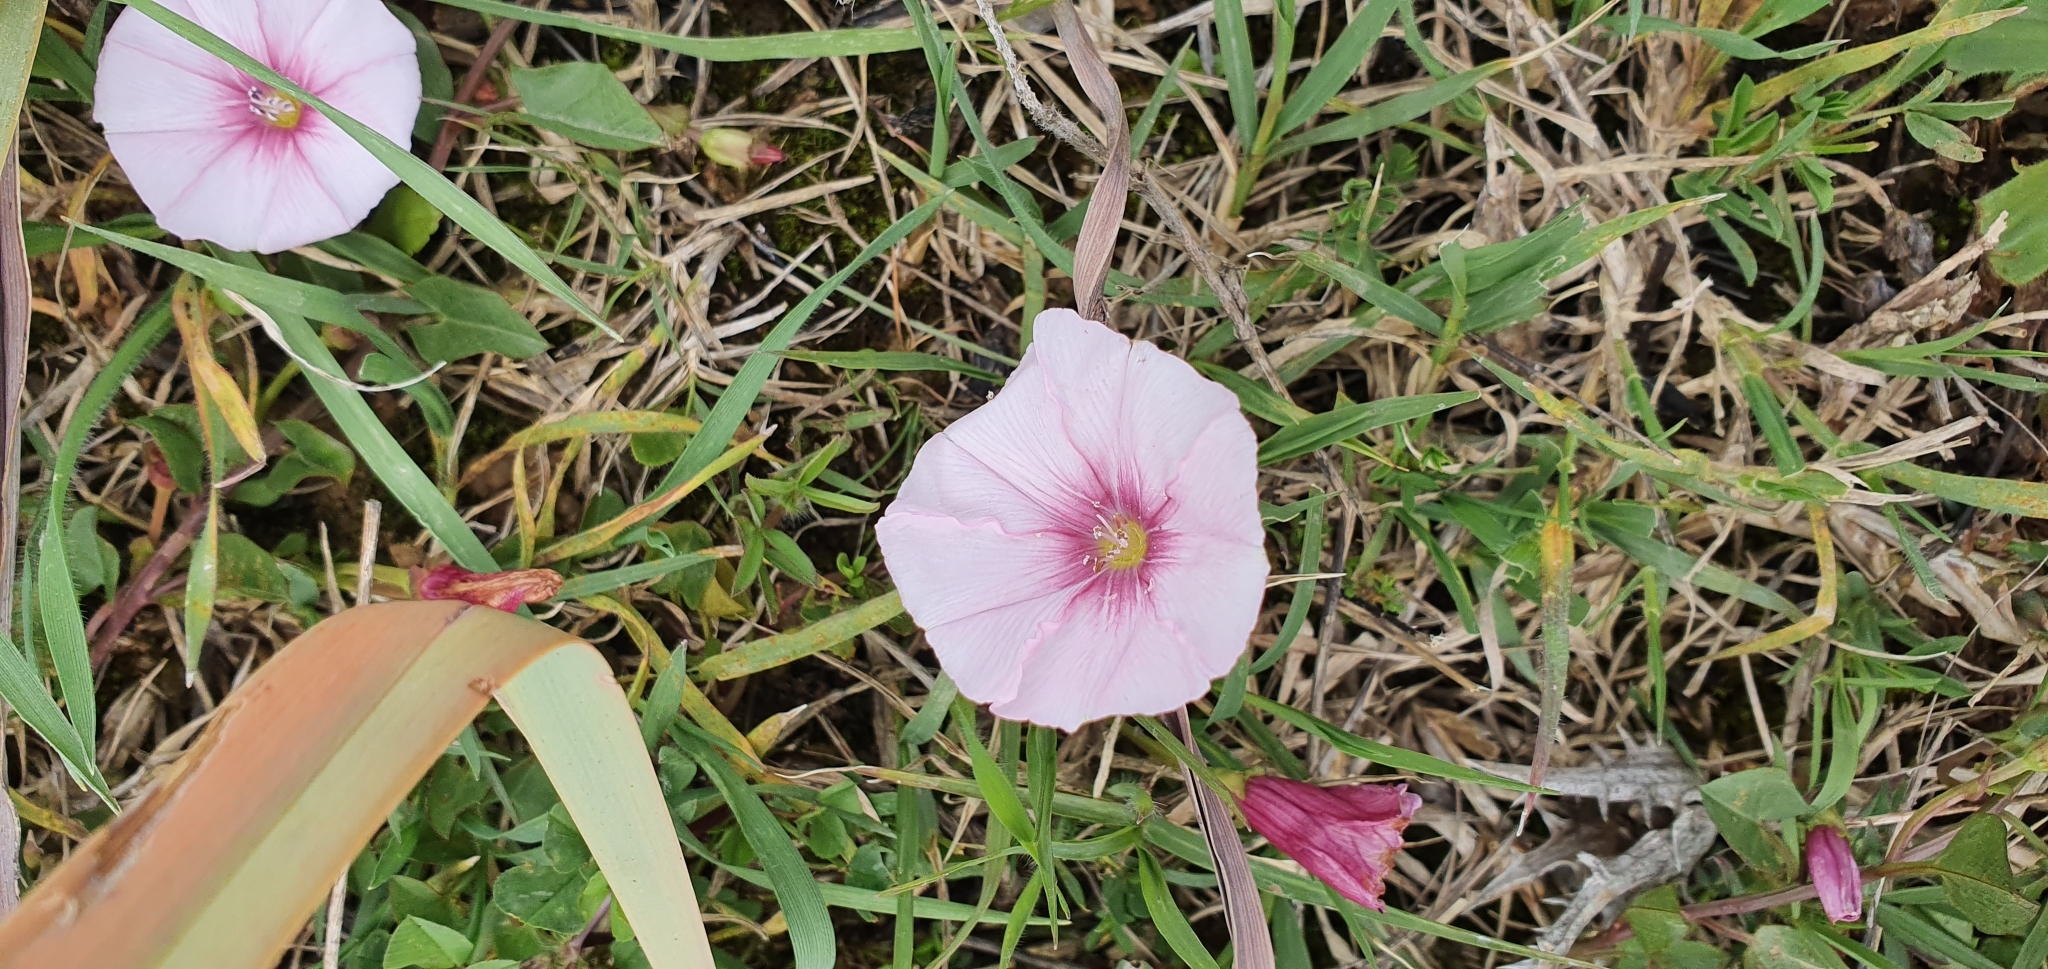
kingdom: Plantae
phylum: Tracheophyta
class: Magnoliopsida
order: Solanales
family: Convolvulaceae
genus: Convolvulus
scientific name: Convolvulus durandoi
